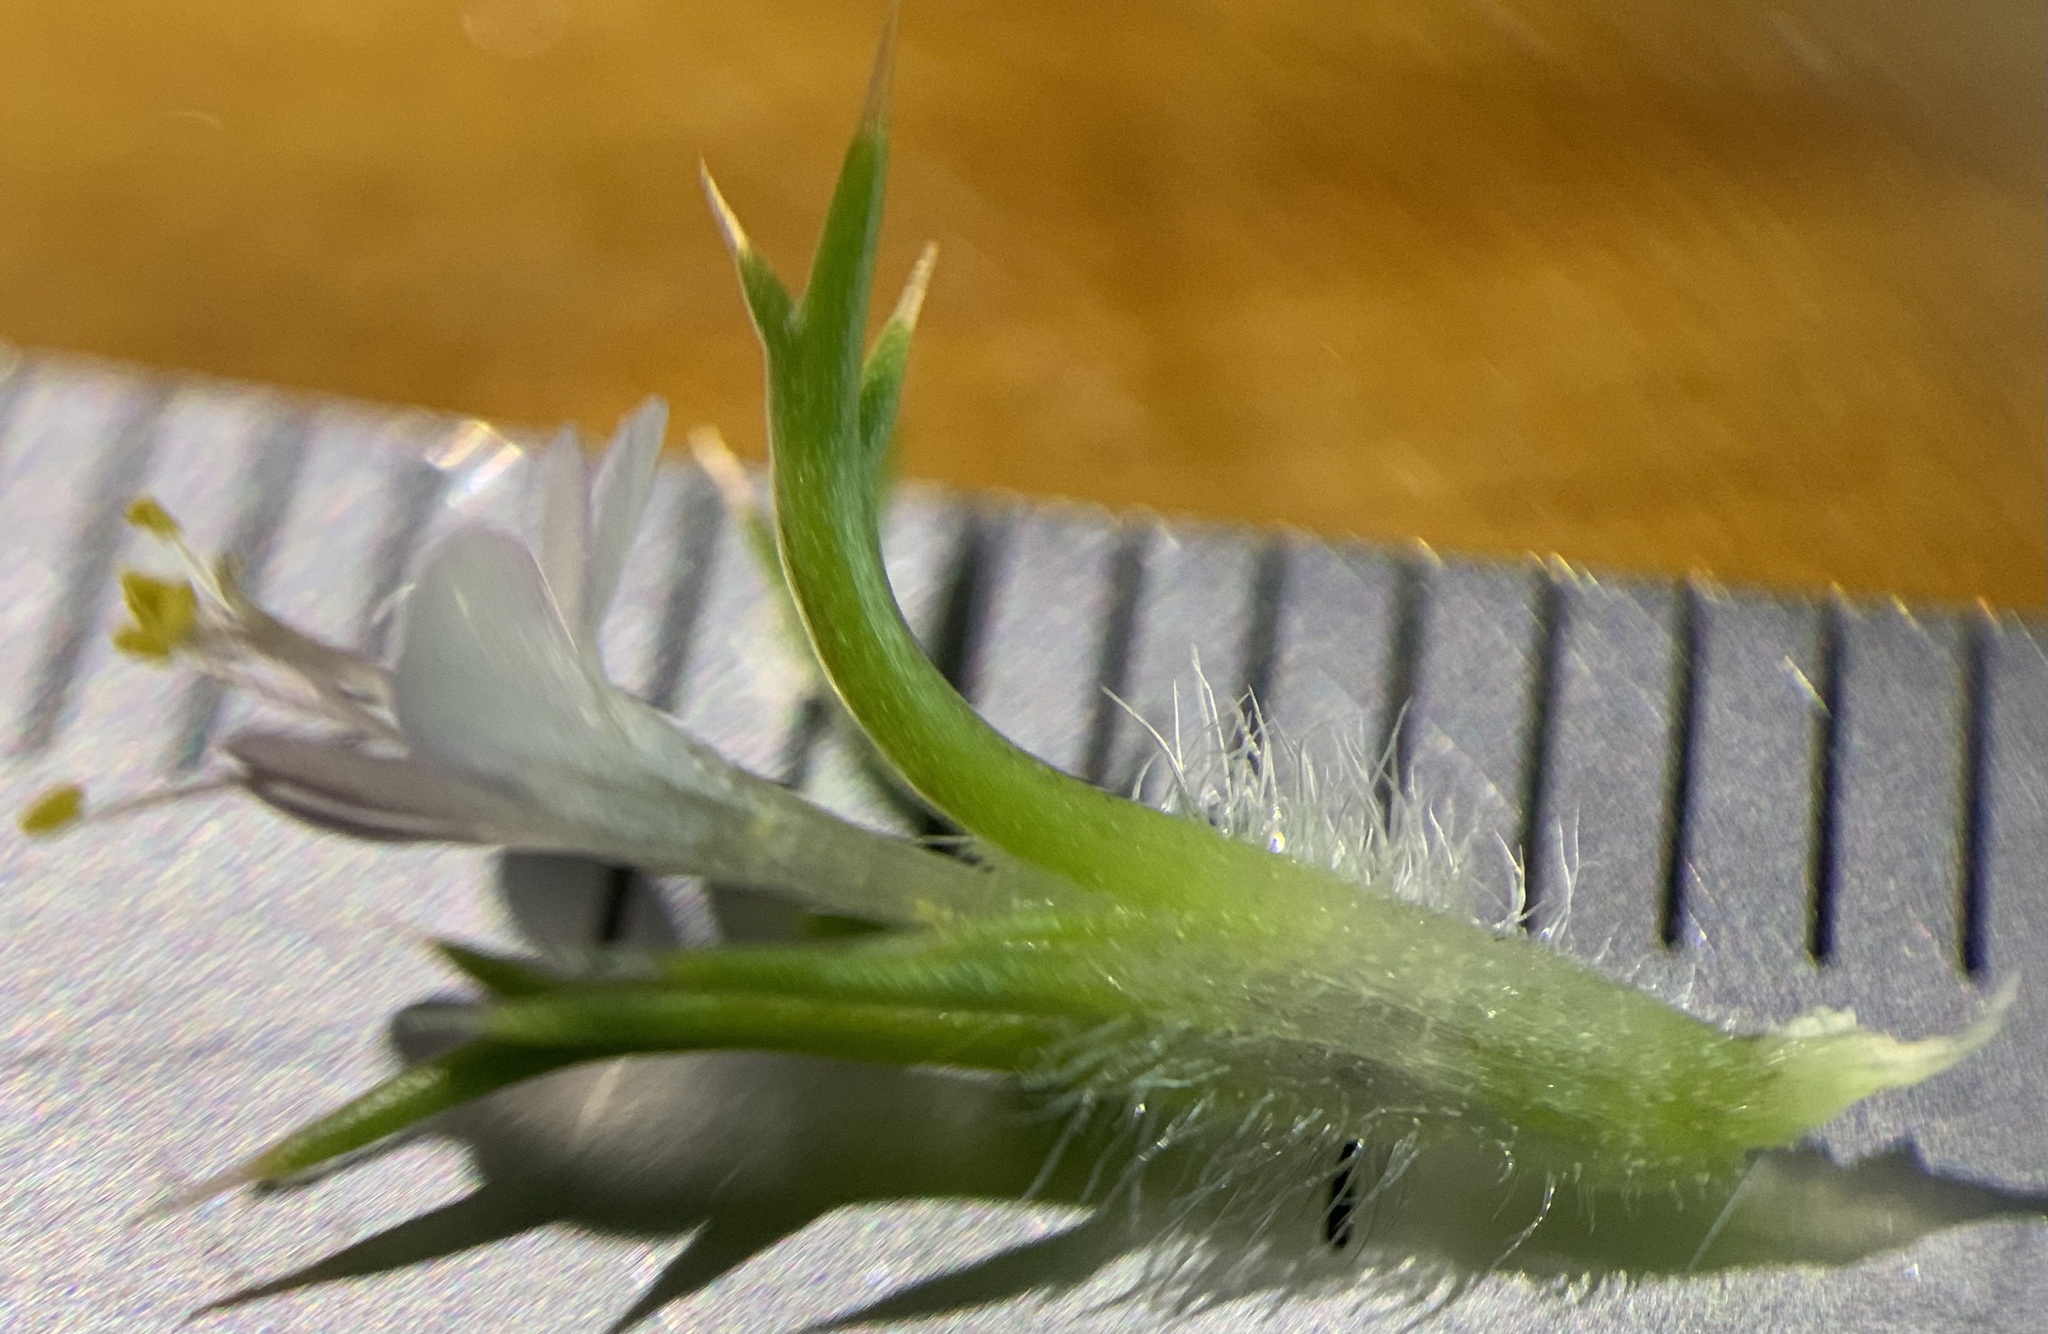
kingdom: Plantae
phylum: Tracheophyta
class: Magnoliopsida
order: Ericales
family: Polemoniaceae
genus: Navarretia
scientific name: Navarretia intertexta
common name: Needle-leaved navarretia
